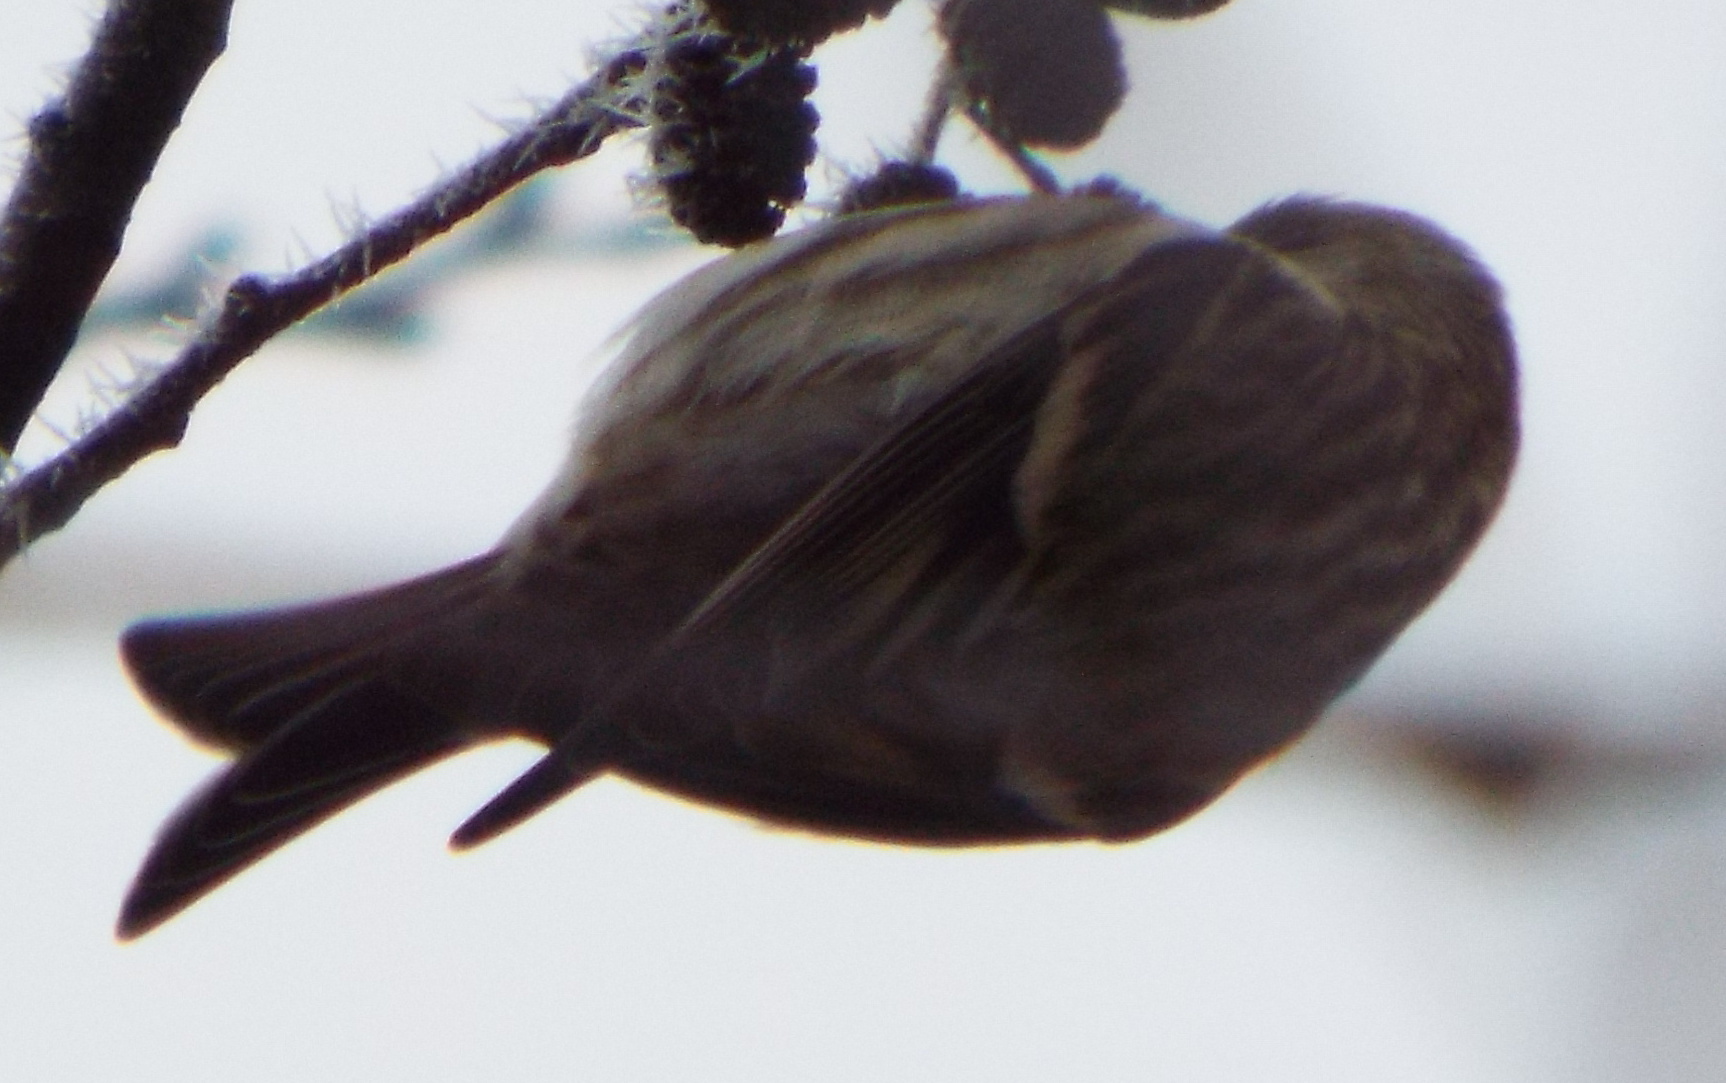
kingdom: Animalia
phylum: Chordata
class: Aves
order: Passeriformes
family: Fringillidae
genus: Acanthis
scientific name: Acanthis flammea
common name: Common redpoll
